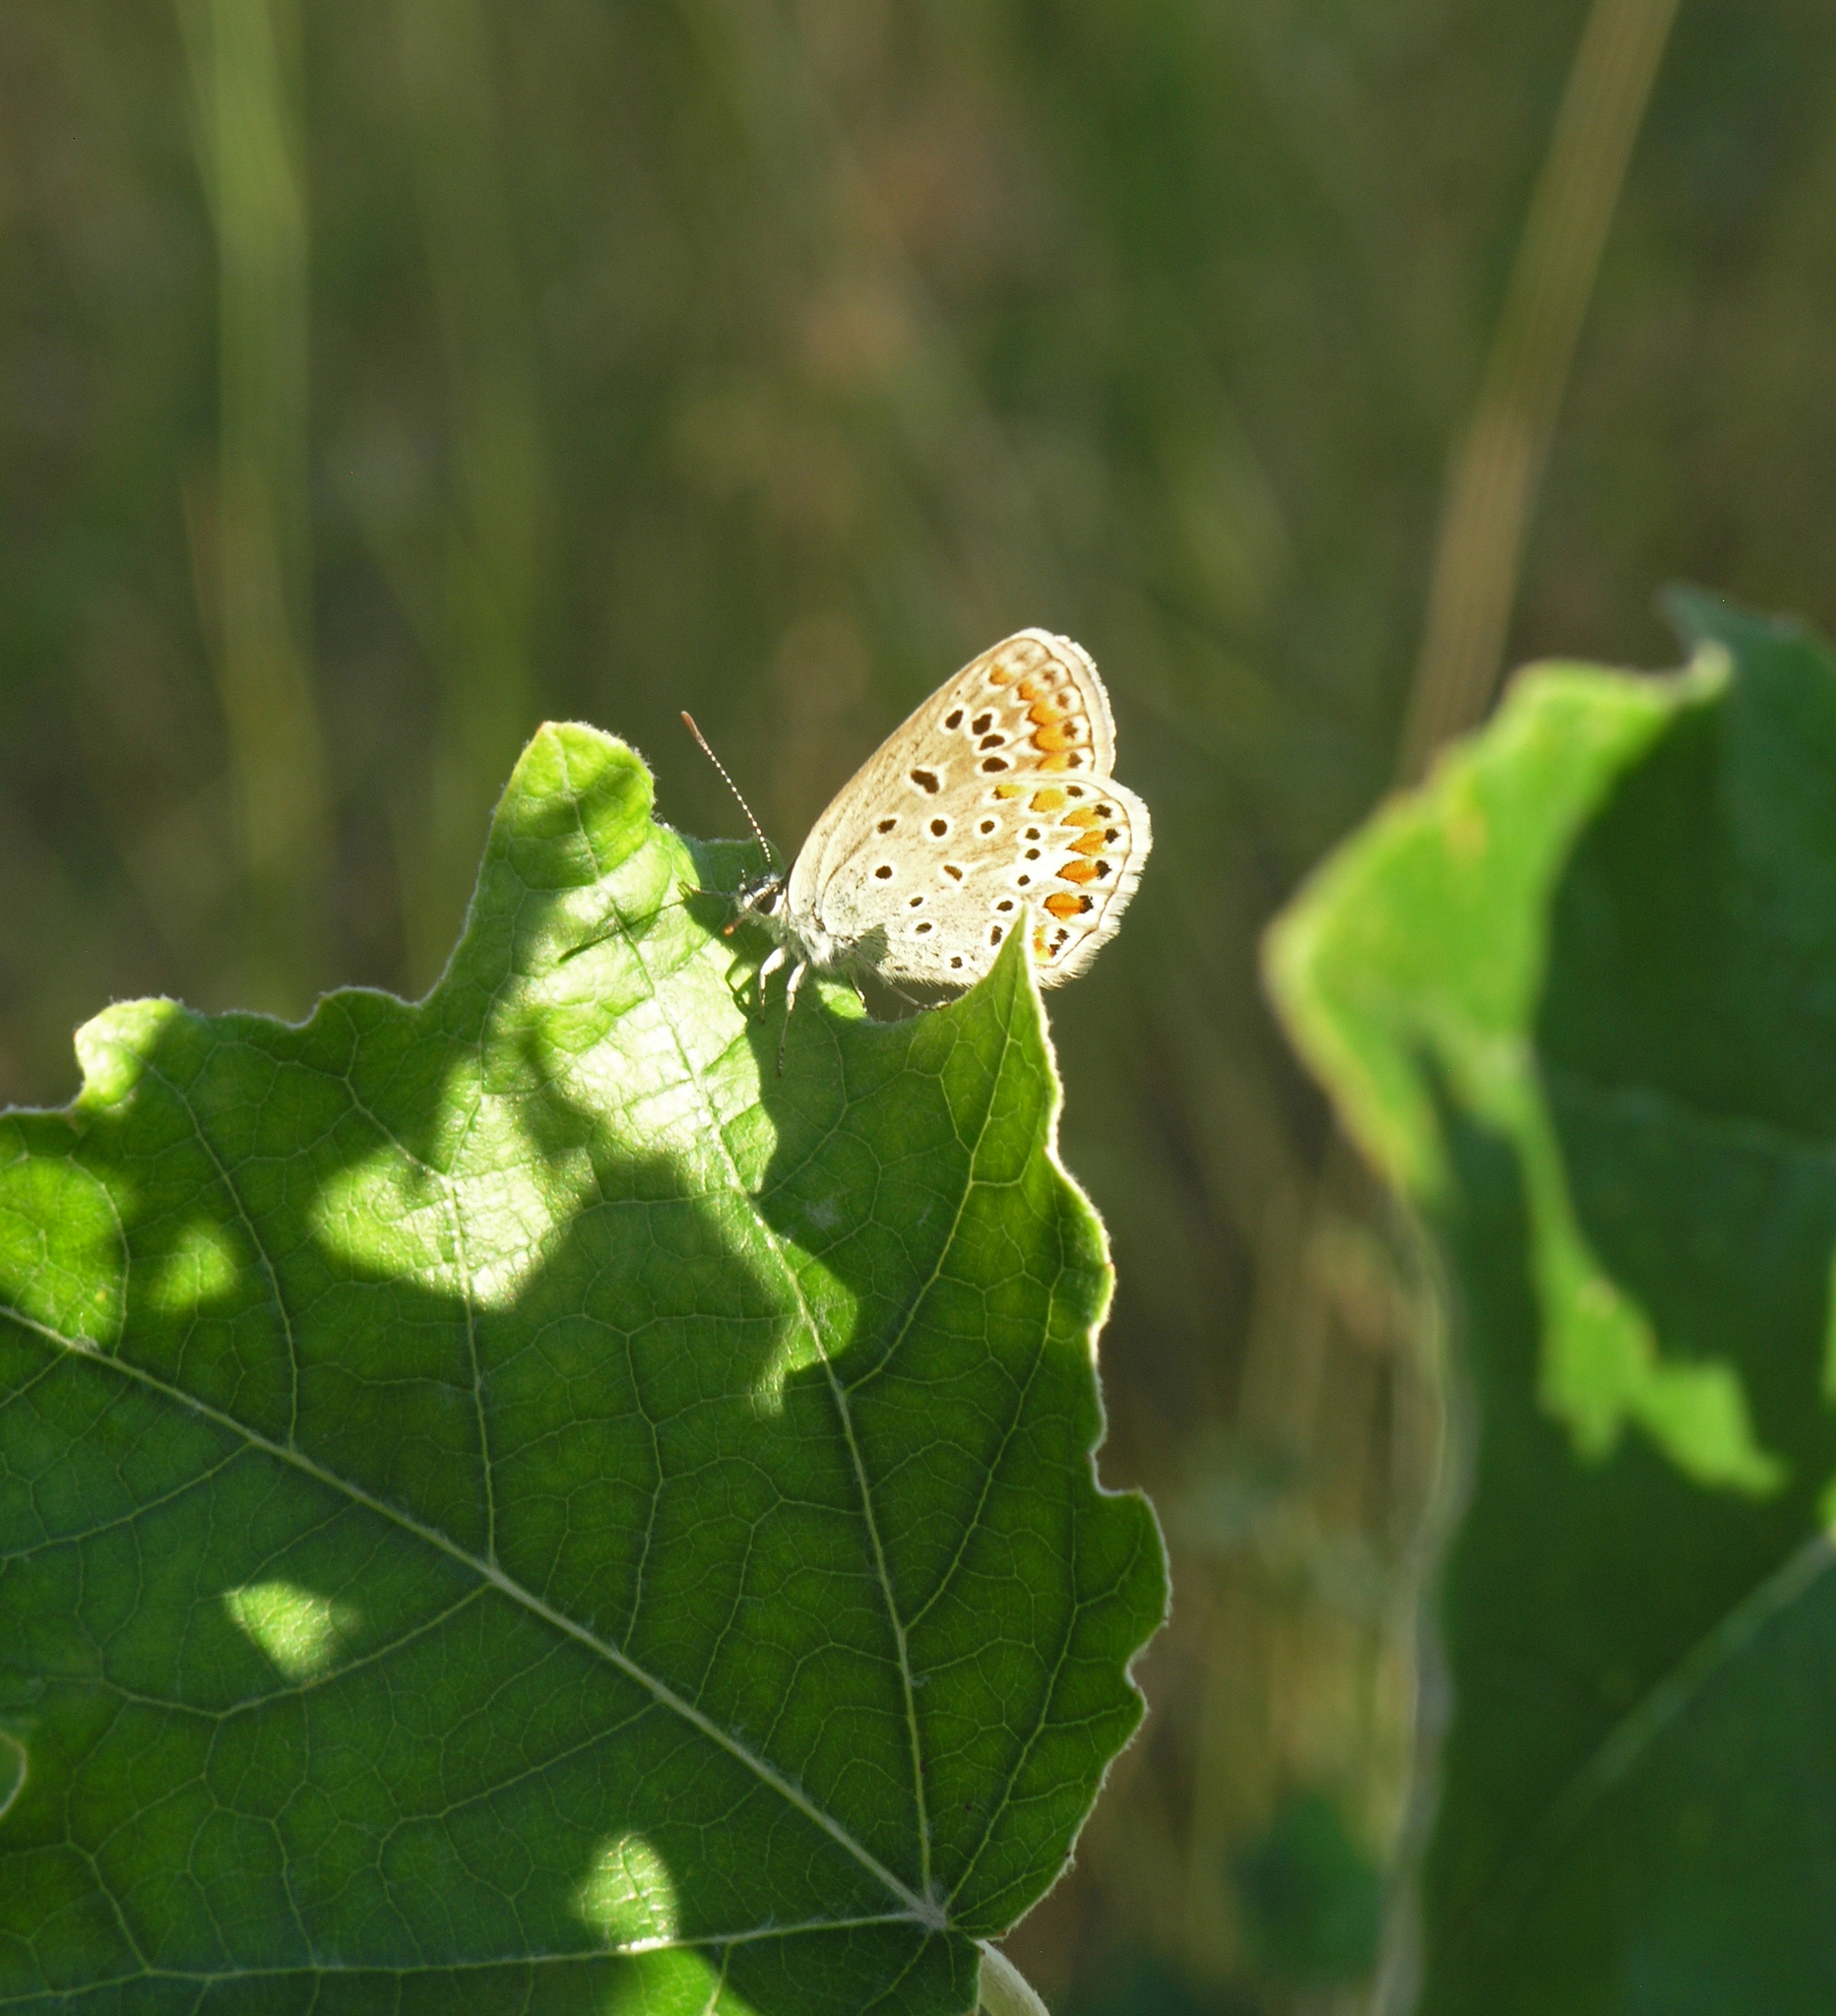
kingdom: Animalia
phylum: Arthropoda
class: Insecta
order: Lepidoptera
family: Lycaenidae
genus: Polyommatus
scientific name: Polyommatus icarus
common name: Common blue
